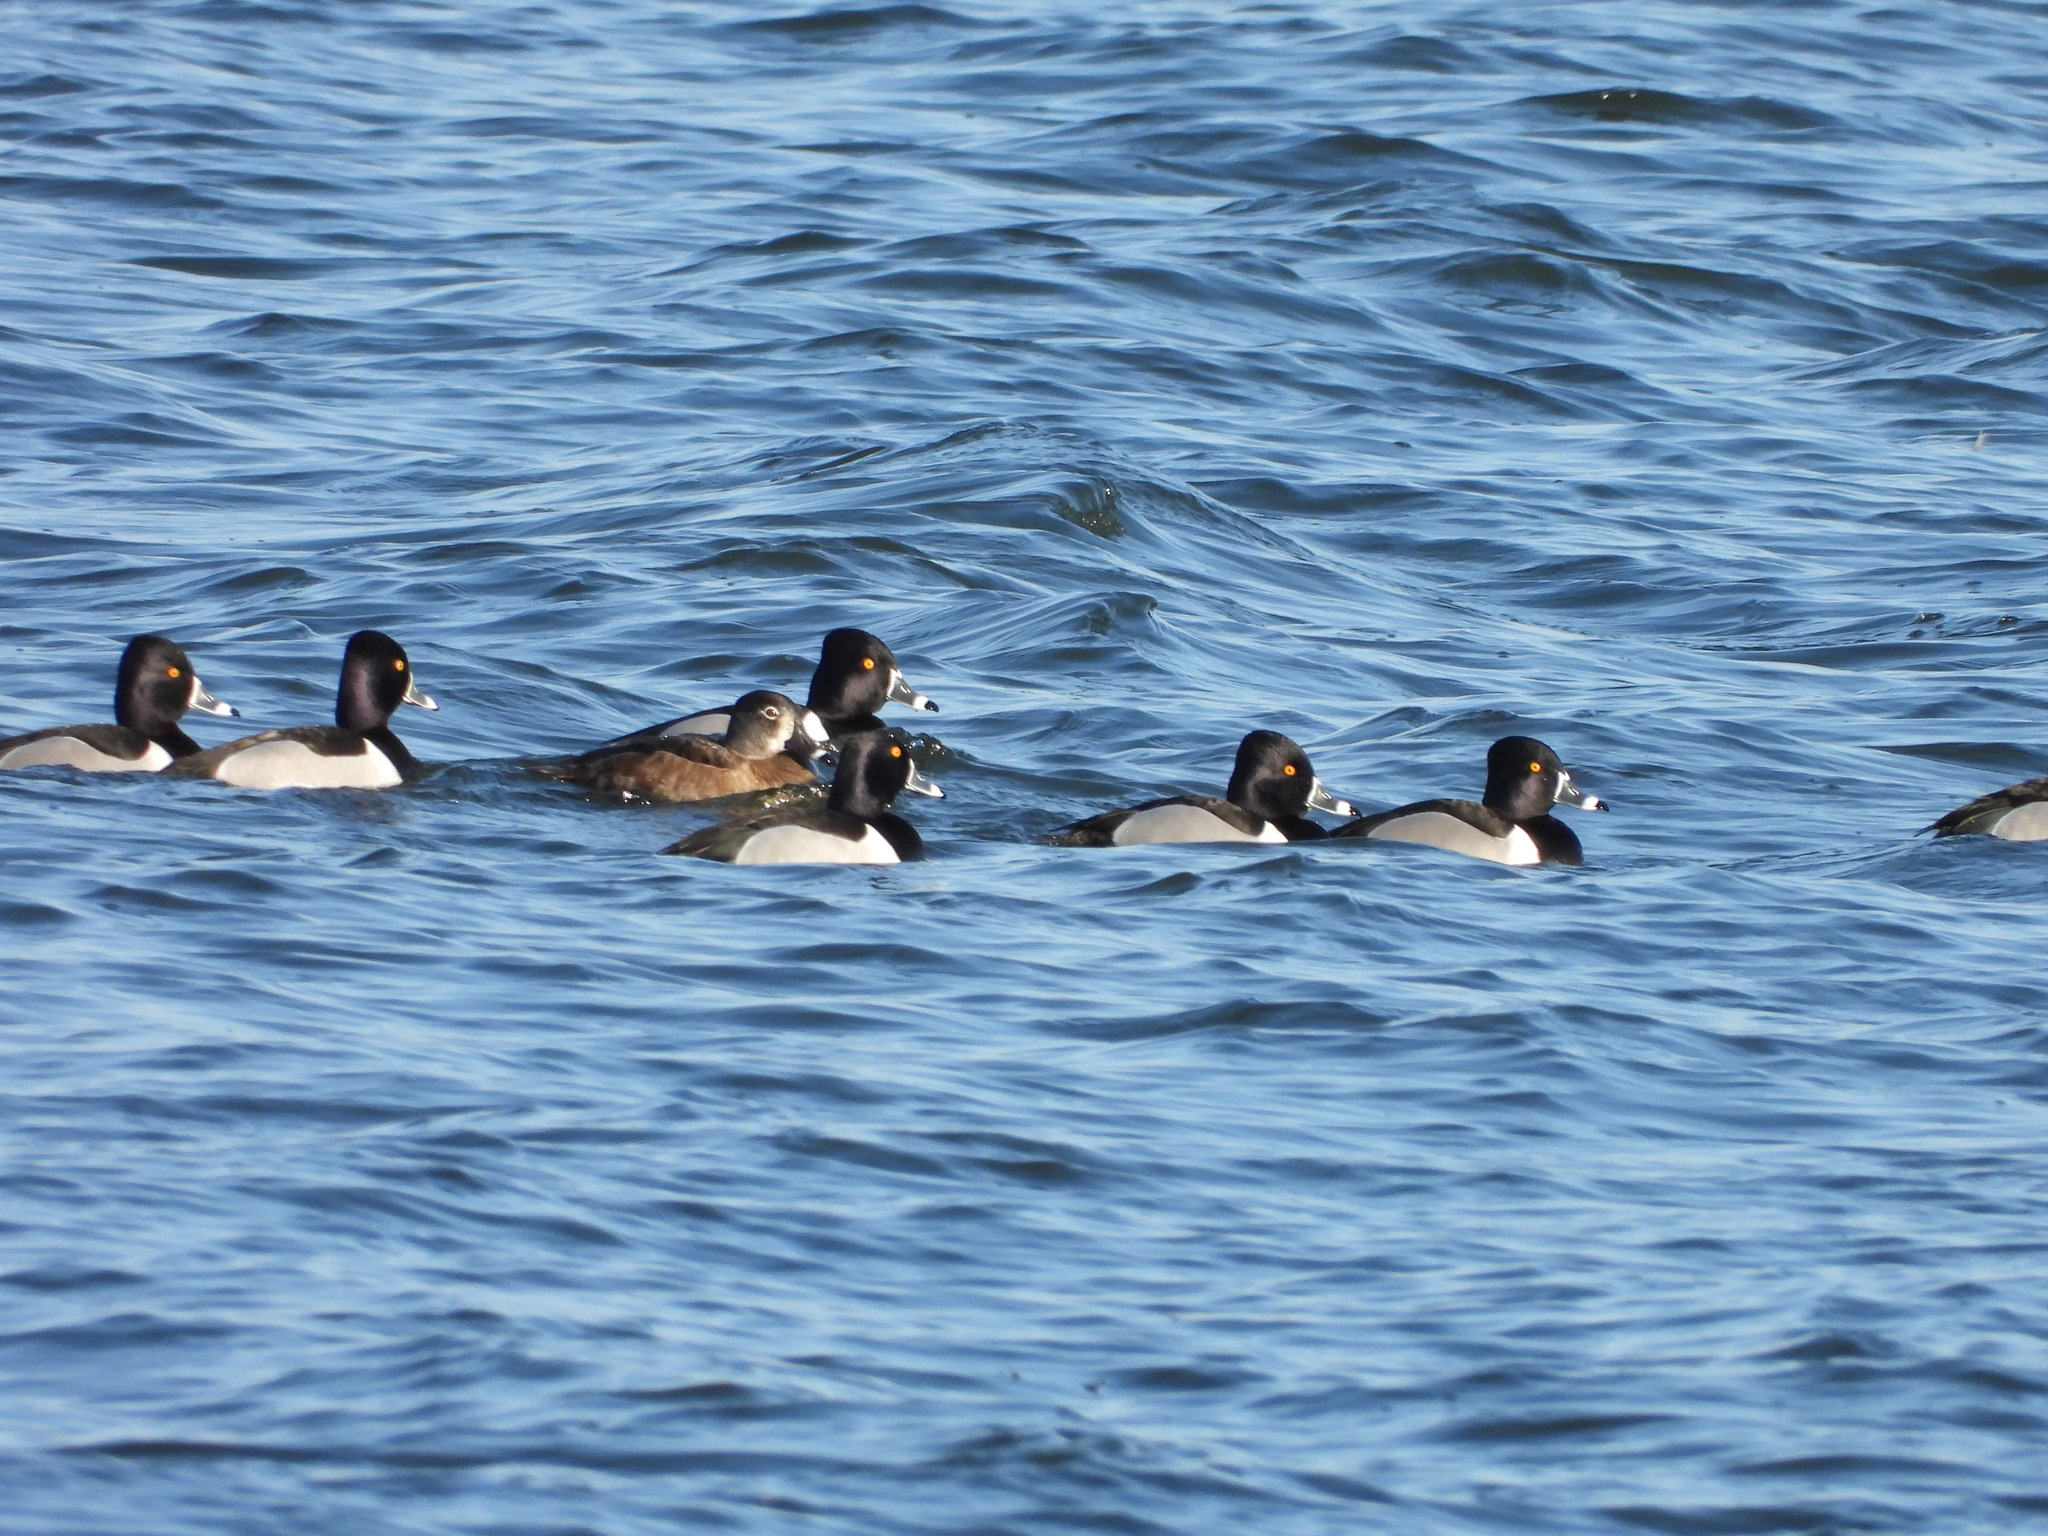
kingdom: Animalia
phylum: Chordata
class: Aves
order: Anseriformes
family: Anatidae
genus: Aythya
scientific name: Aythya collaris
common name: Ring-necked duck
